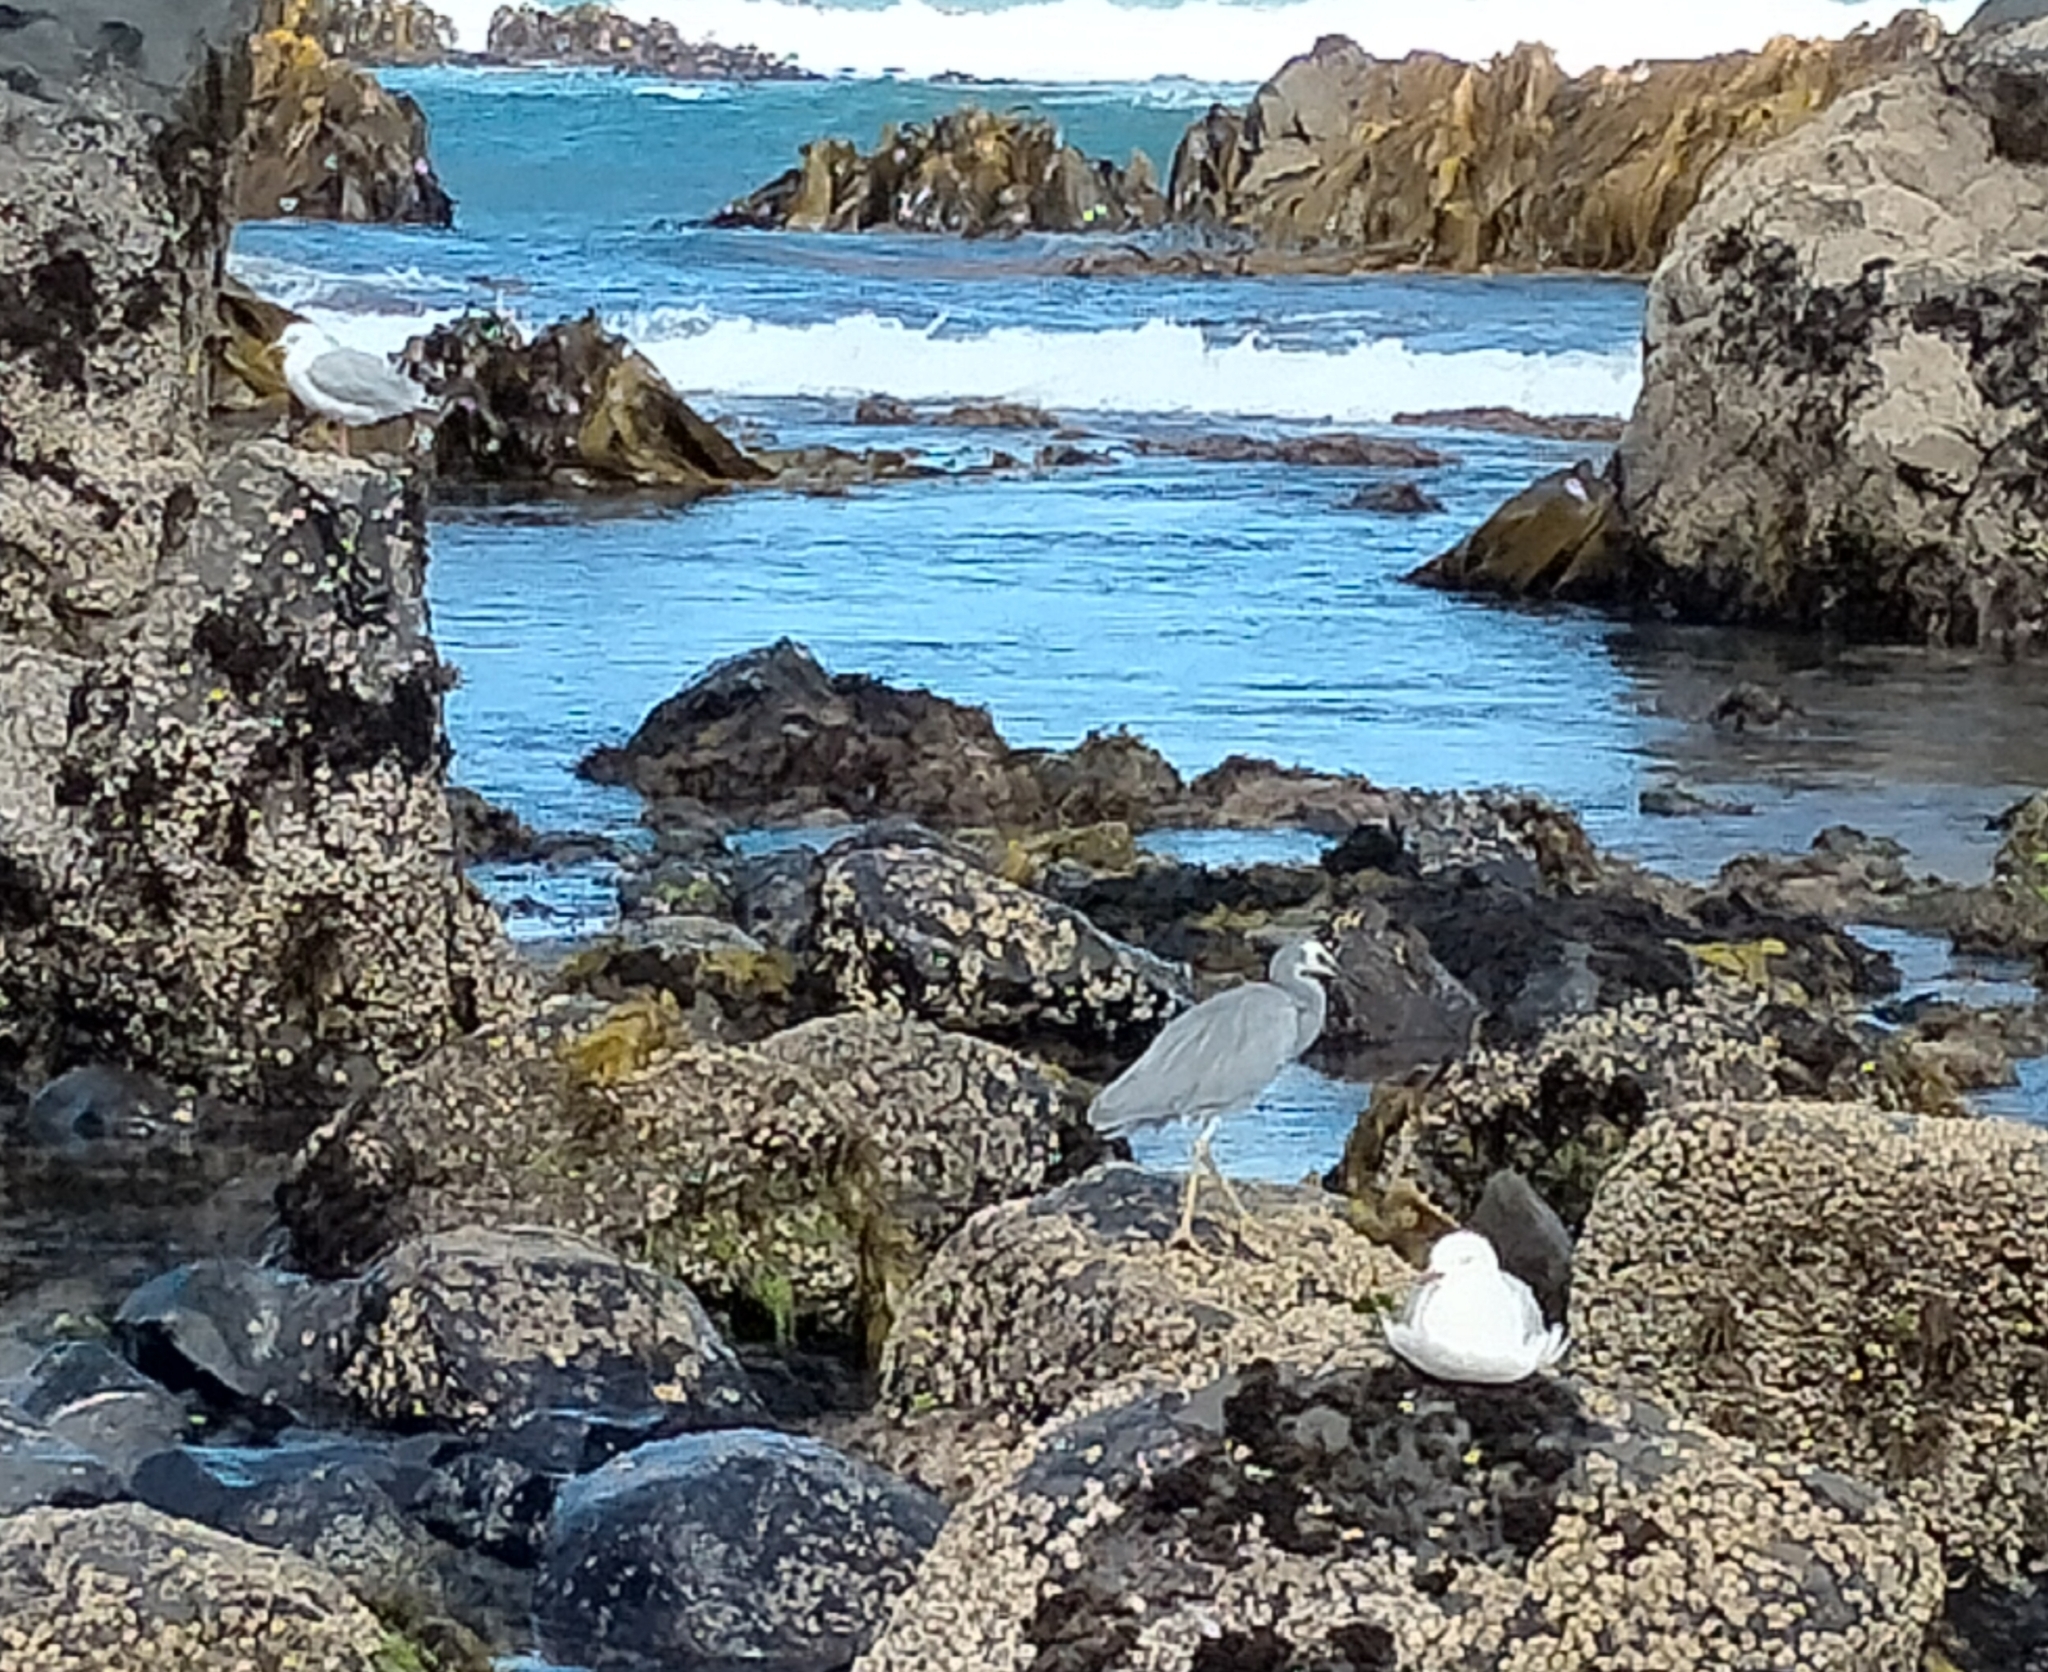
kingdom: Animalia
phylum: Chordata
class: Aves
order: Pelecaniformes
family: Ardeidae
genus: Egretta
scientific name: Egretta novaehollandiae
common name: White-faced heron
